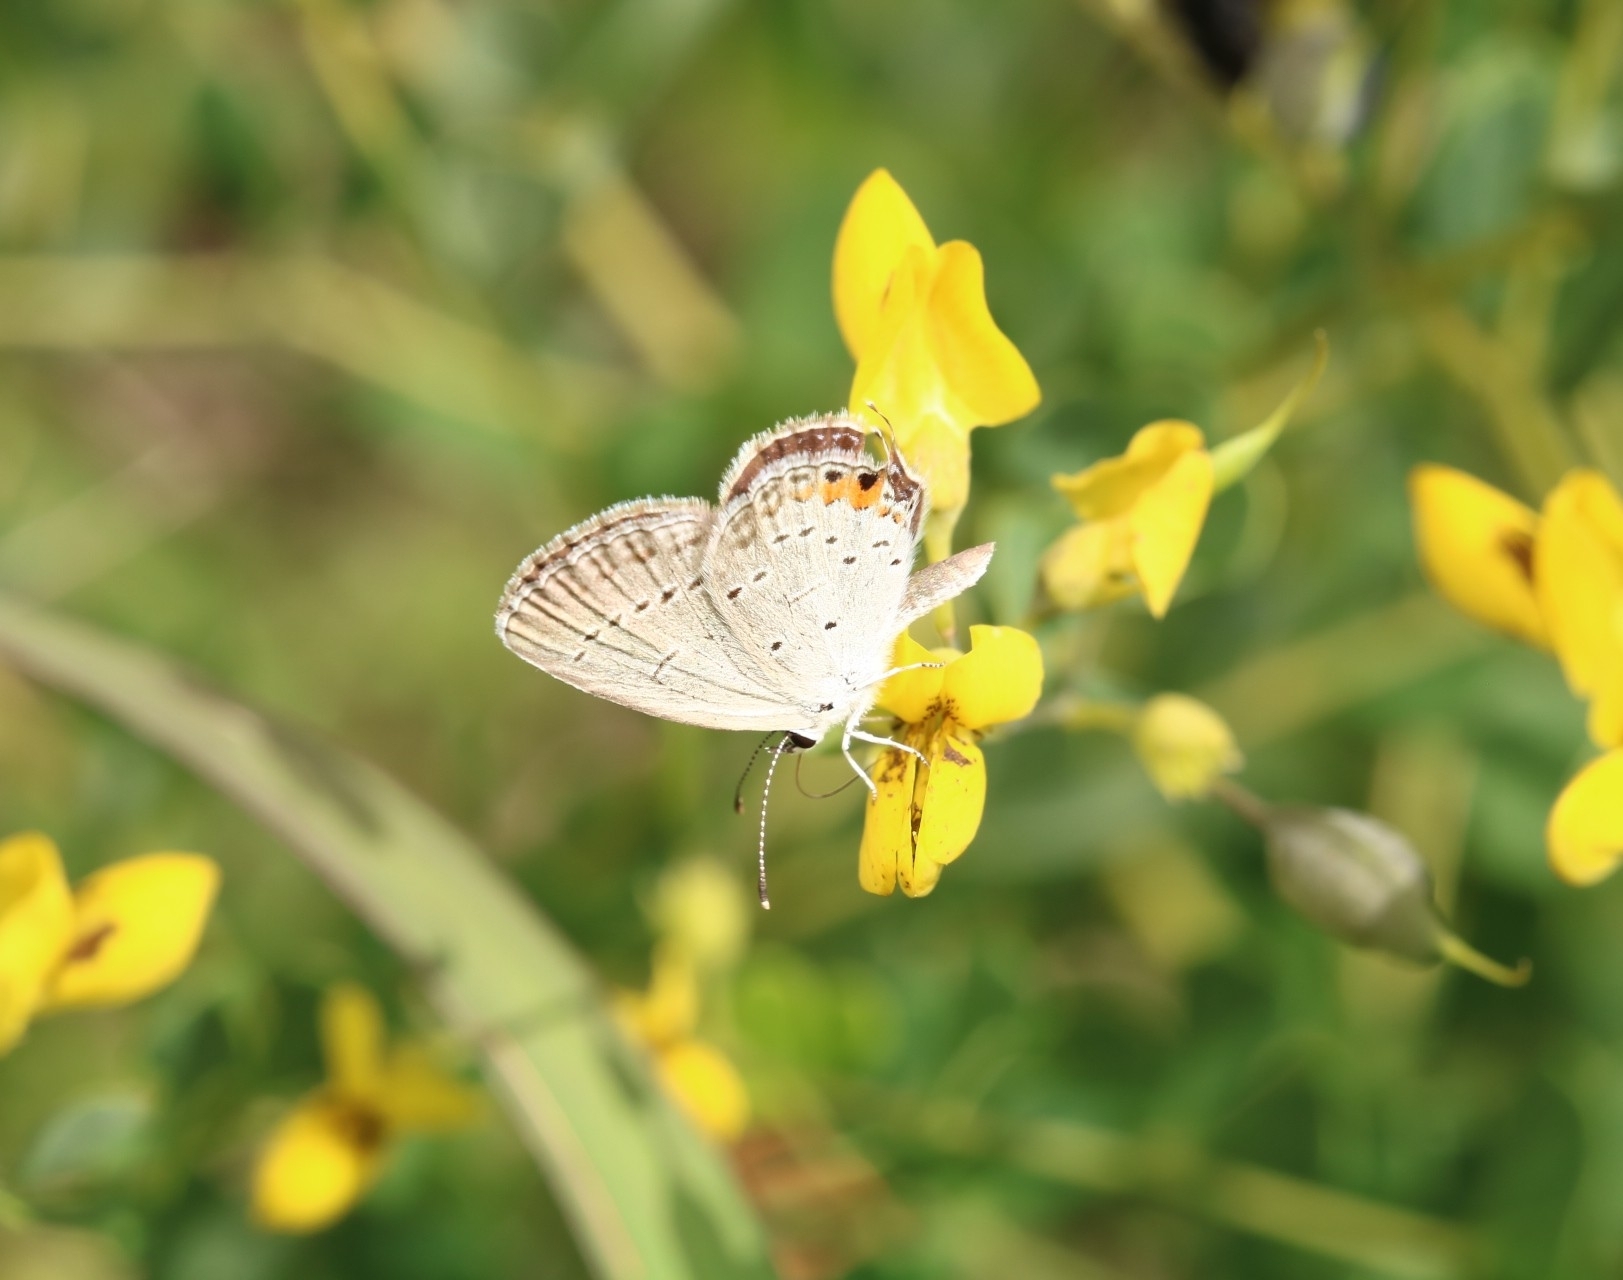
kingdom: Animalia
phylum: Arthropoda
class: Insecta
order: Lepidoptera
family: Lycaenidae
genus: Elkalyce
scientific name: Elkalyce comyntas
